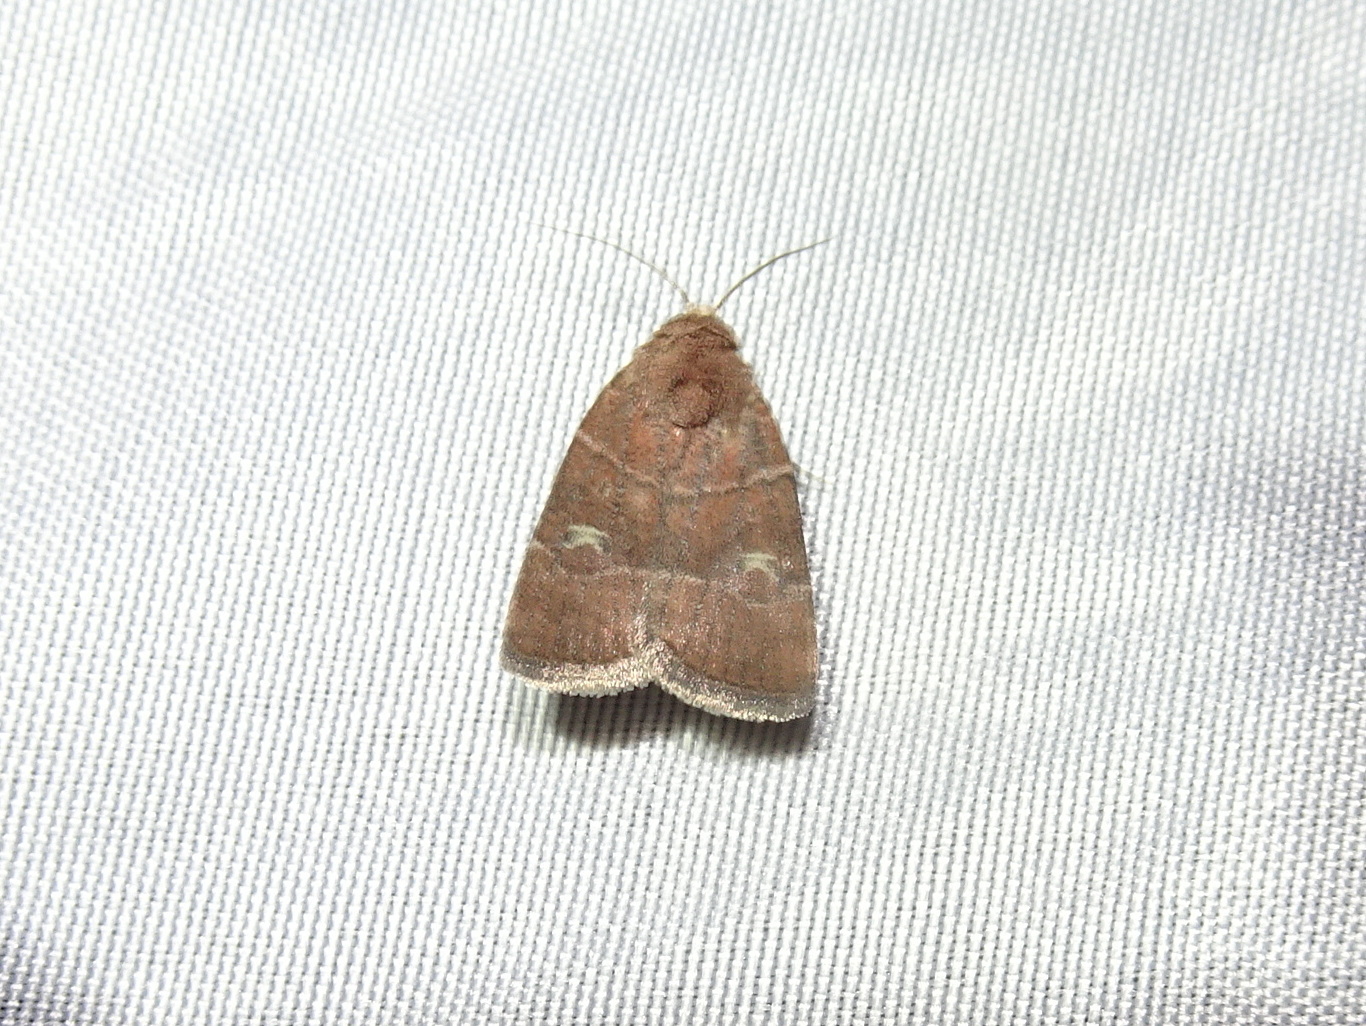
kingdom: Animalia
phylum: Arthropoda
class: Insecta
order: Lepidoptera
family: Noctuidae
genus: Elaphria
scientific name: Elaphria grata
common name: Grateful midget moth
